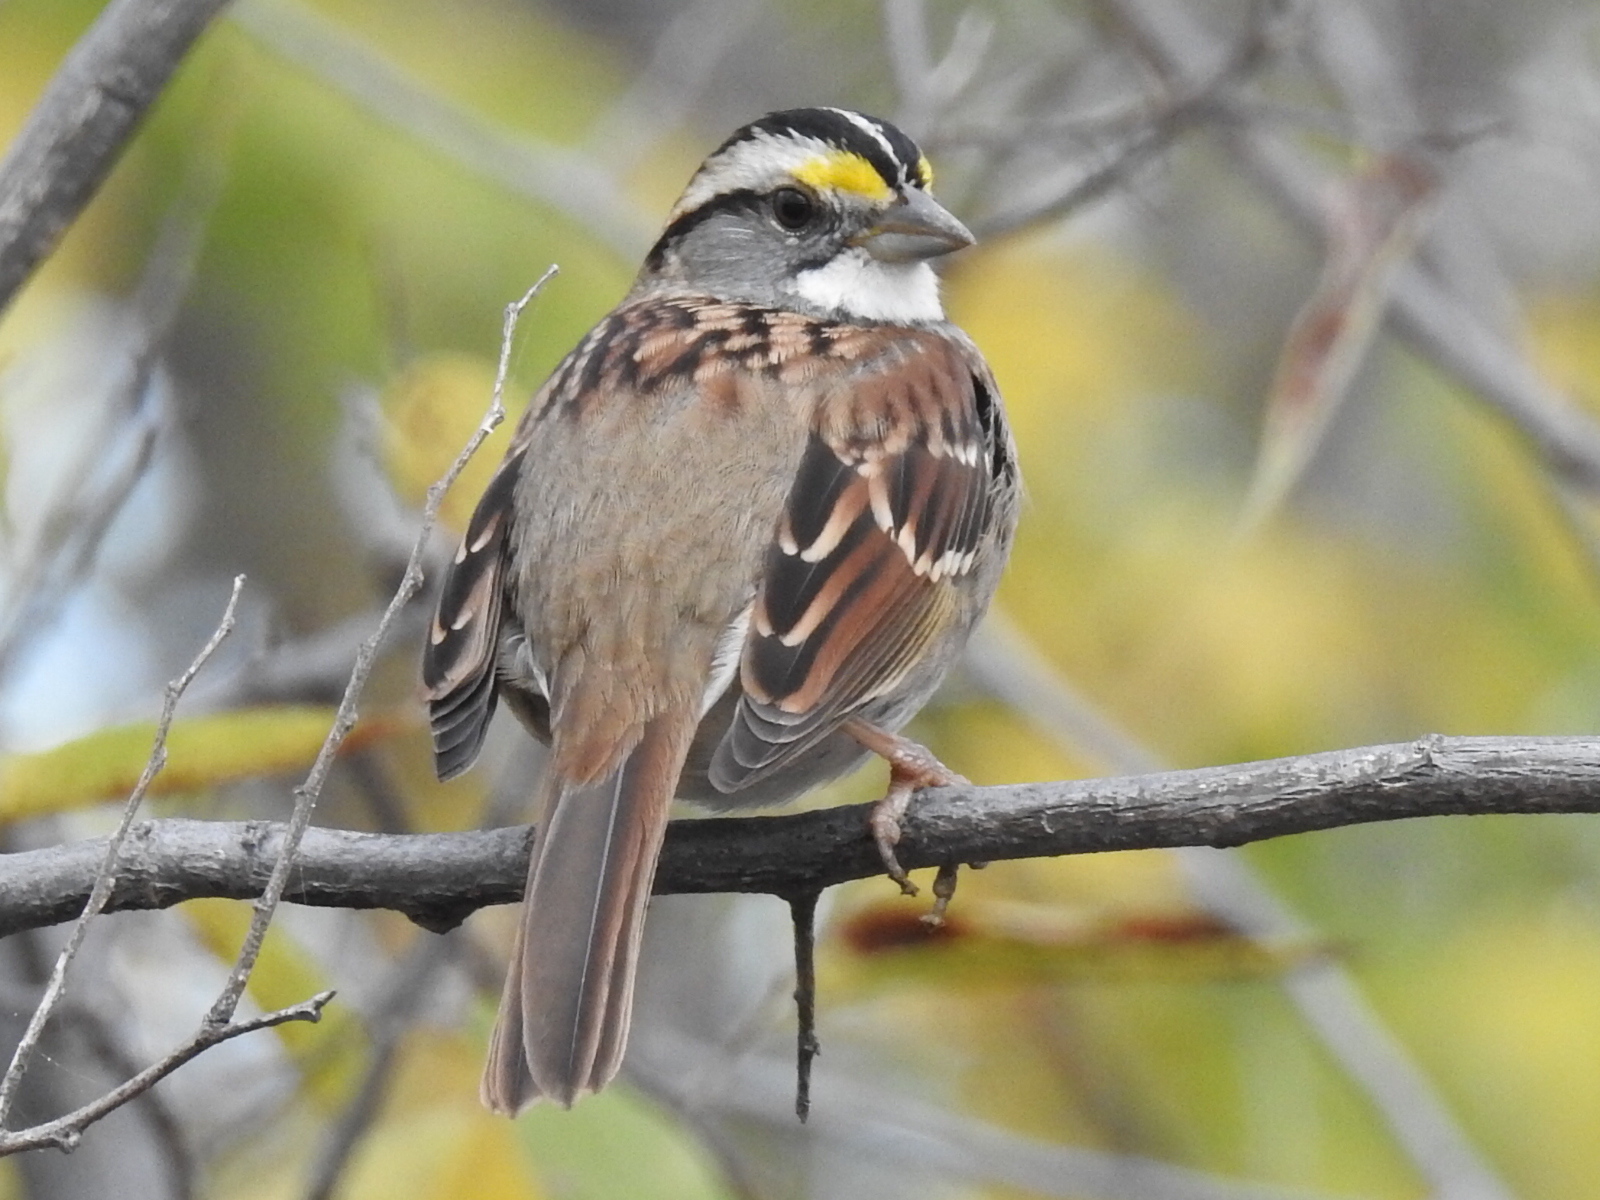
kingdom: Animalia
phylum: Chordata
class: Aves
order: Passeriformes
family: Passerellidae
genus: Zonotrichia
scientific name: Zonotrichia albicollis
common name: White-throated sparrow
